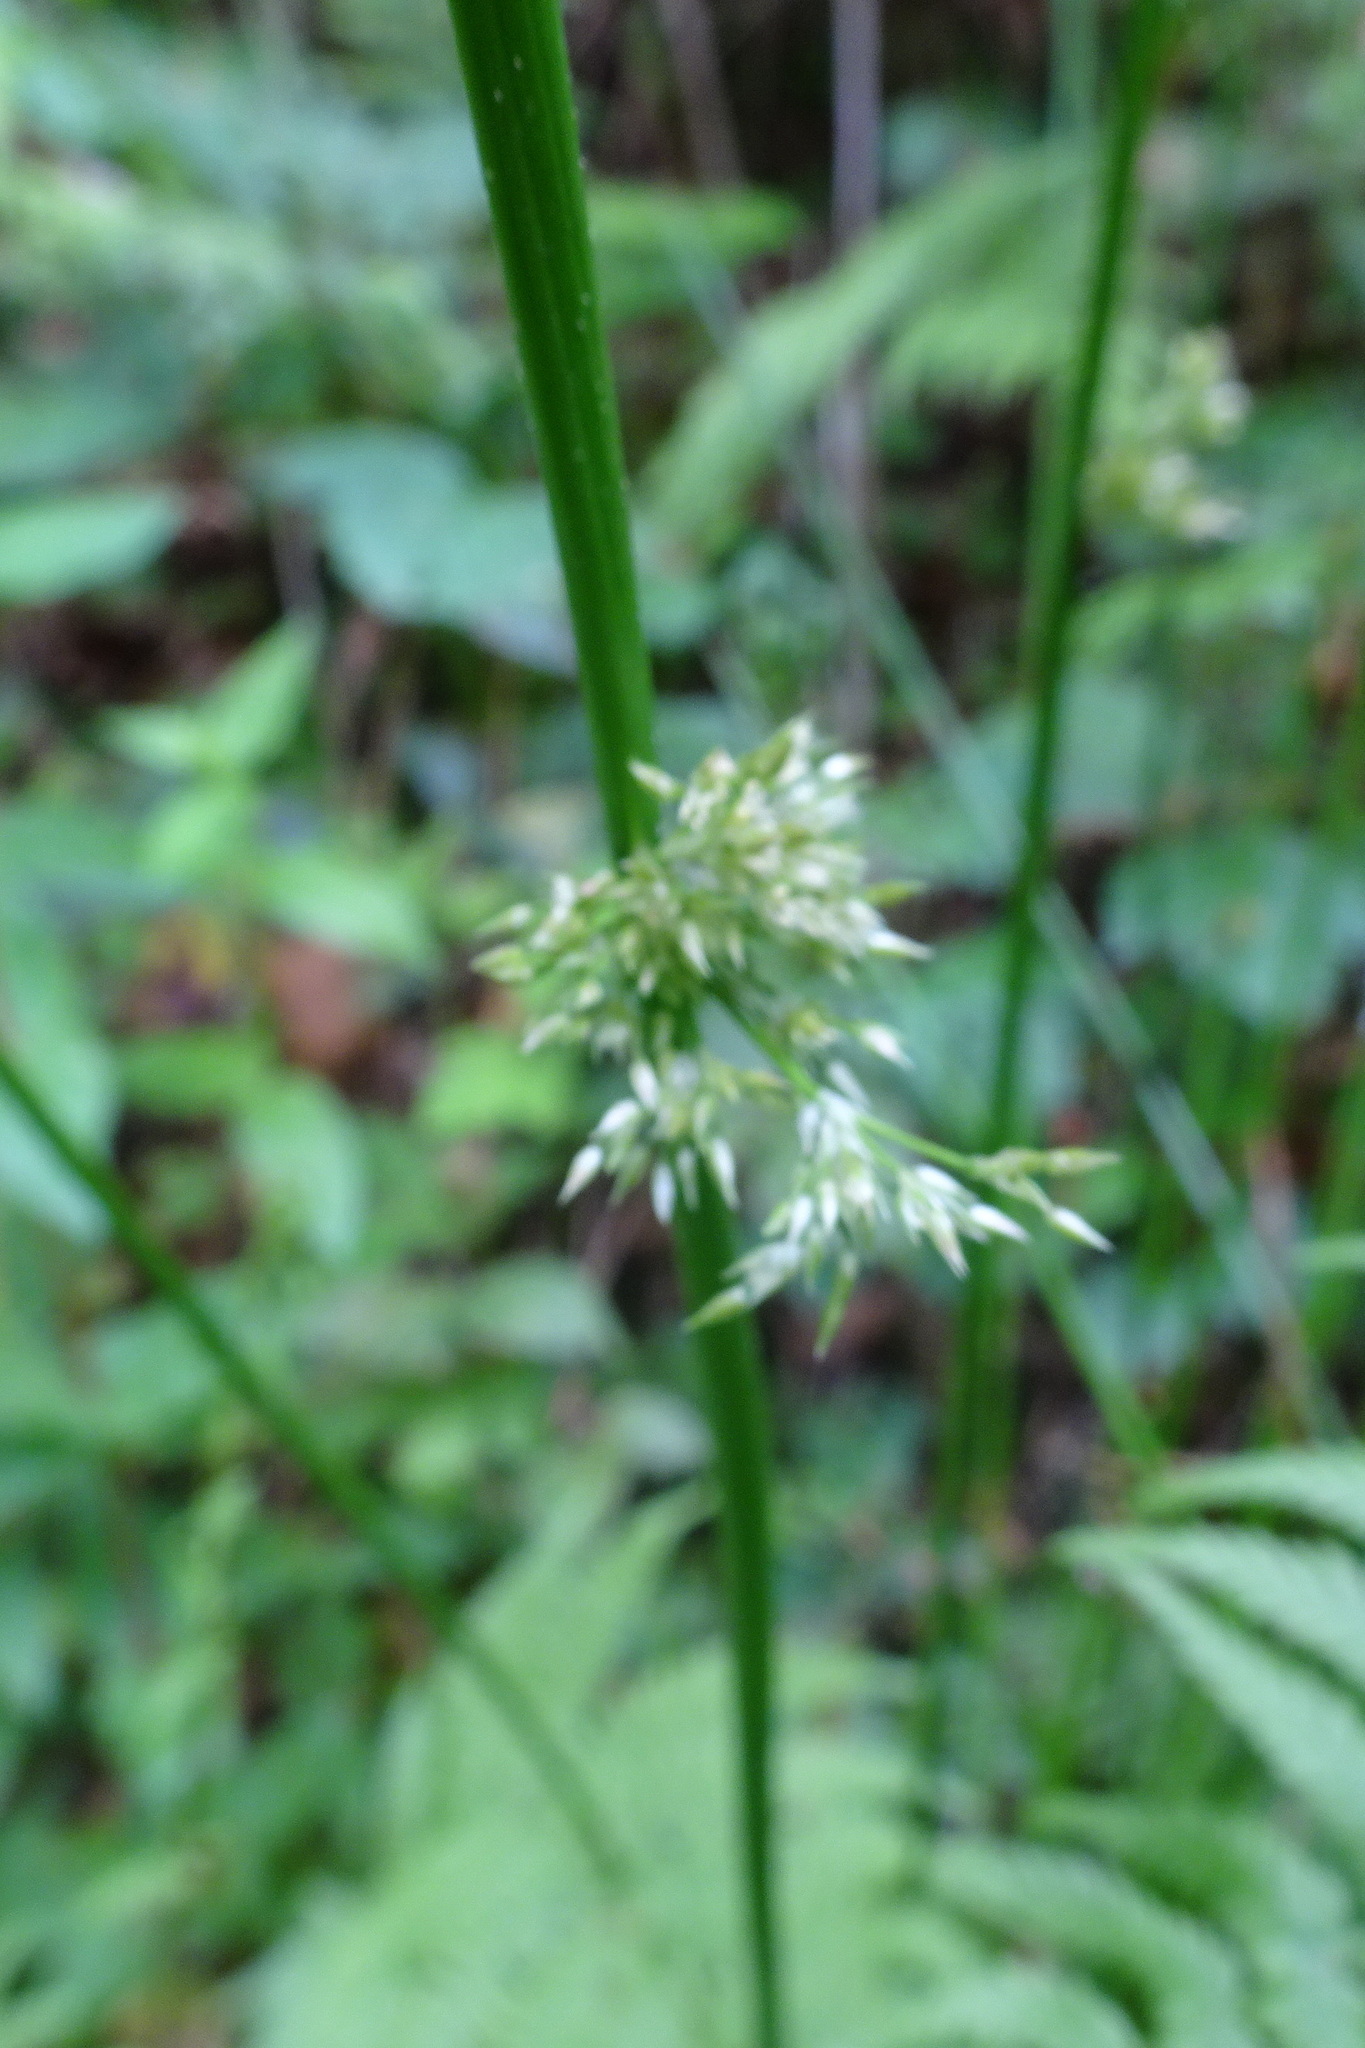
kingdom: Plantae
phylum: Tracheophyta
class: Liliopsida
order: Poales
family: Juncaceae
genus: Juncus
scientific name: Juncus effusus
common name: Soft rush
